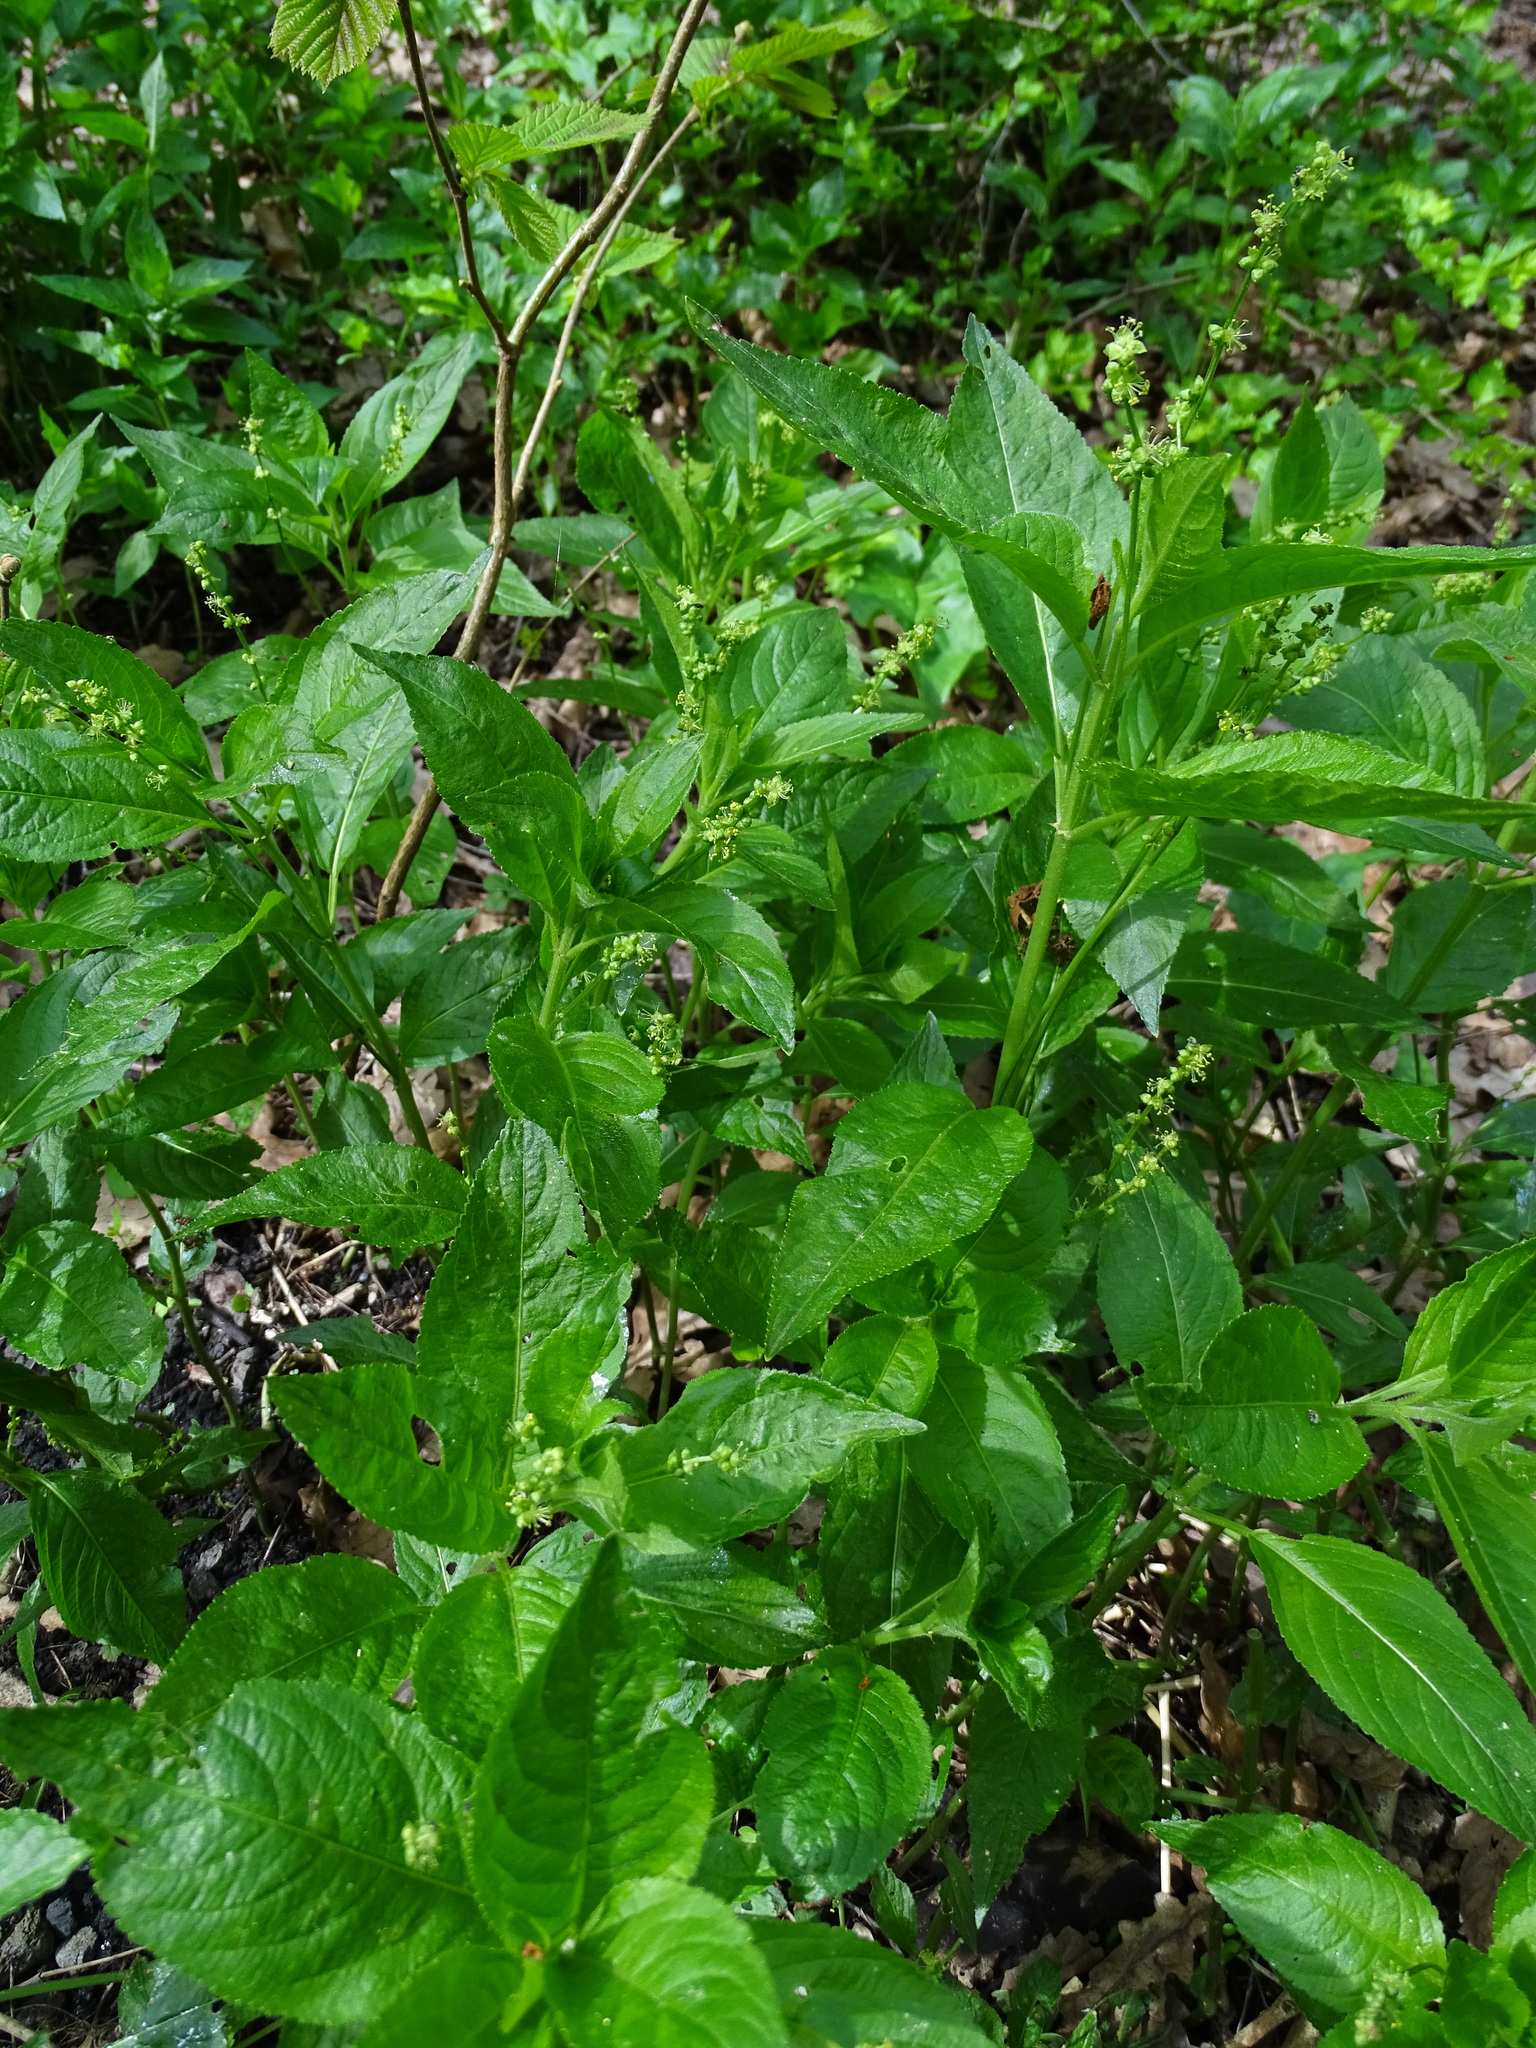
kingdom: Plantae
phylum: Tracheophyta
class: Magnoliopsida
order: Malpighiales
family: Euphorbiaceae
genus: Mercurialis
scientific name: Mercurialis perennis
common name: Dog mercury
